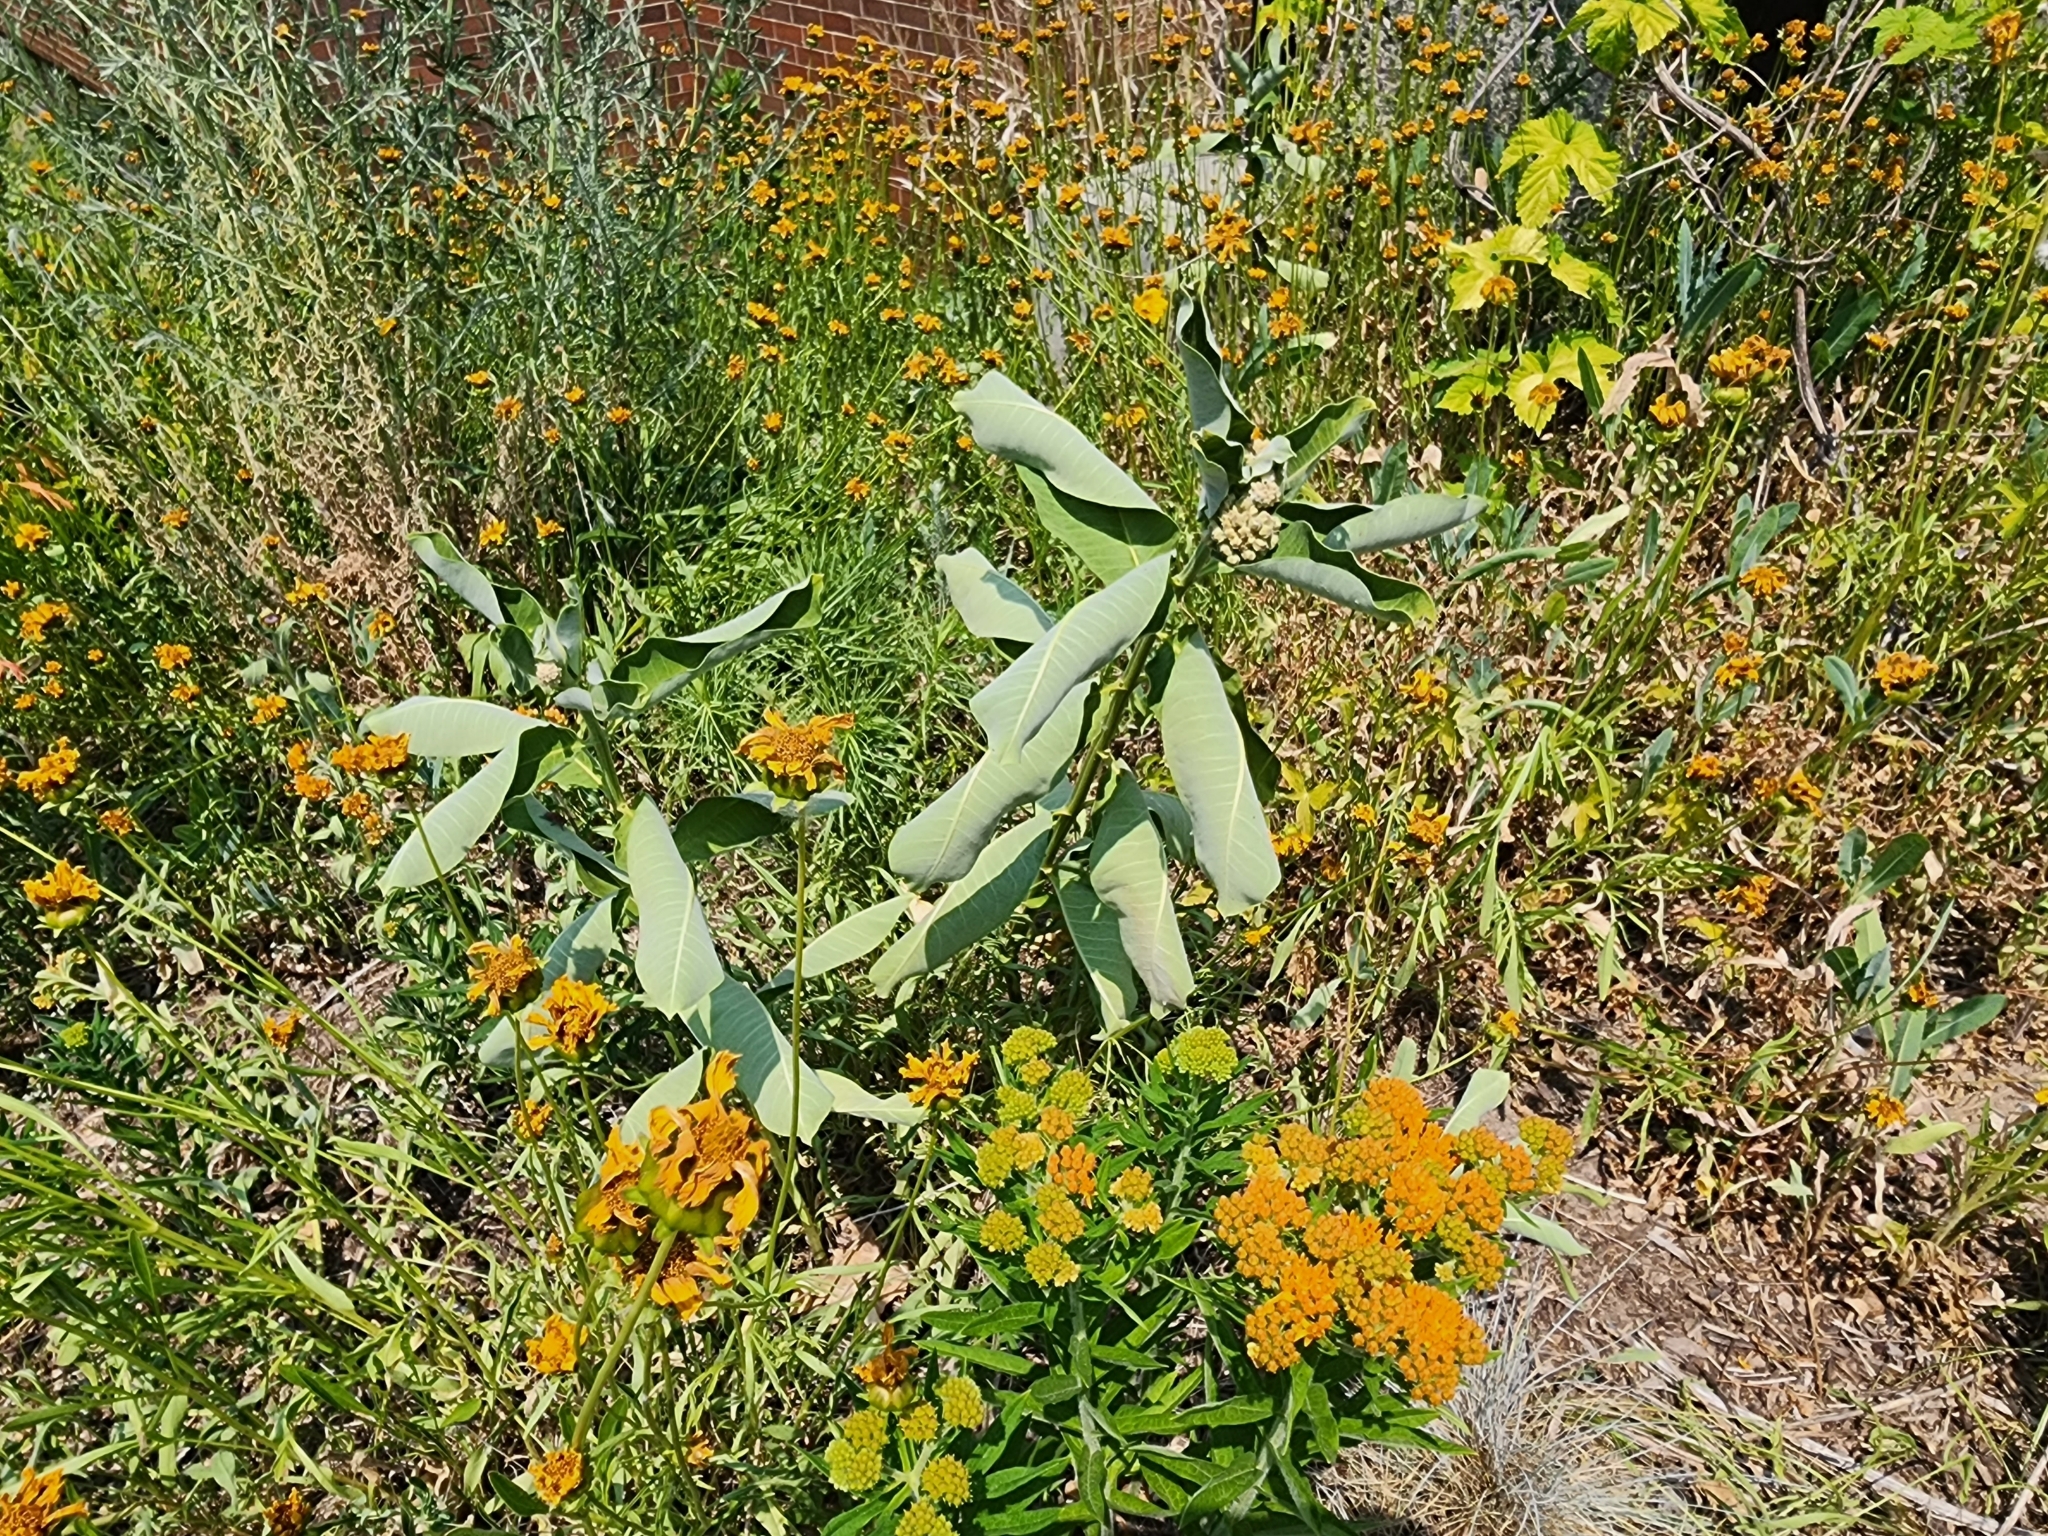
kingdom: Plantae
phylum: Tracheophyta
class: Magnoliopsida
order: Gentianales
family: Apocynaceae
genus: Asclepias
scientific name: Asclepias syriaca
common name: Common milkweed
